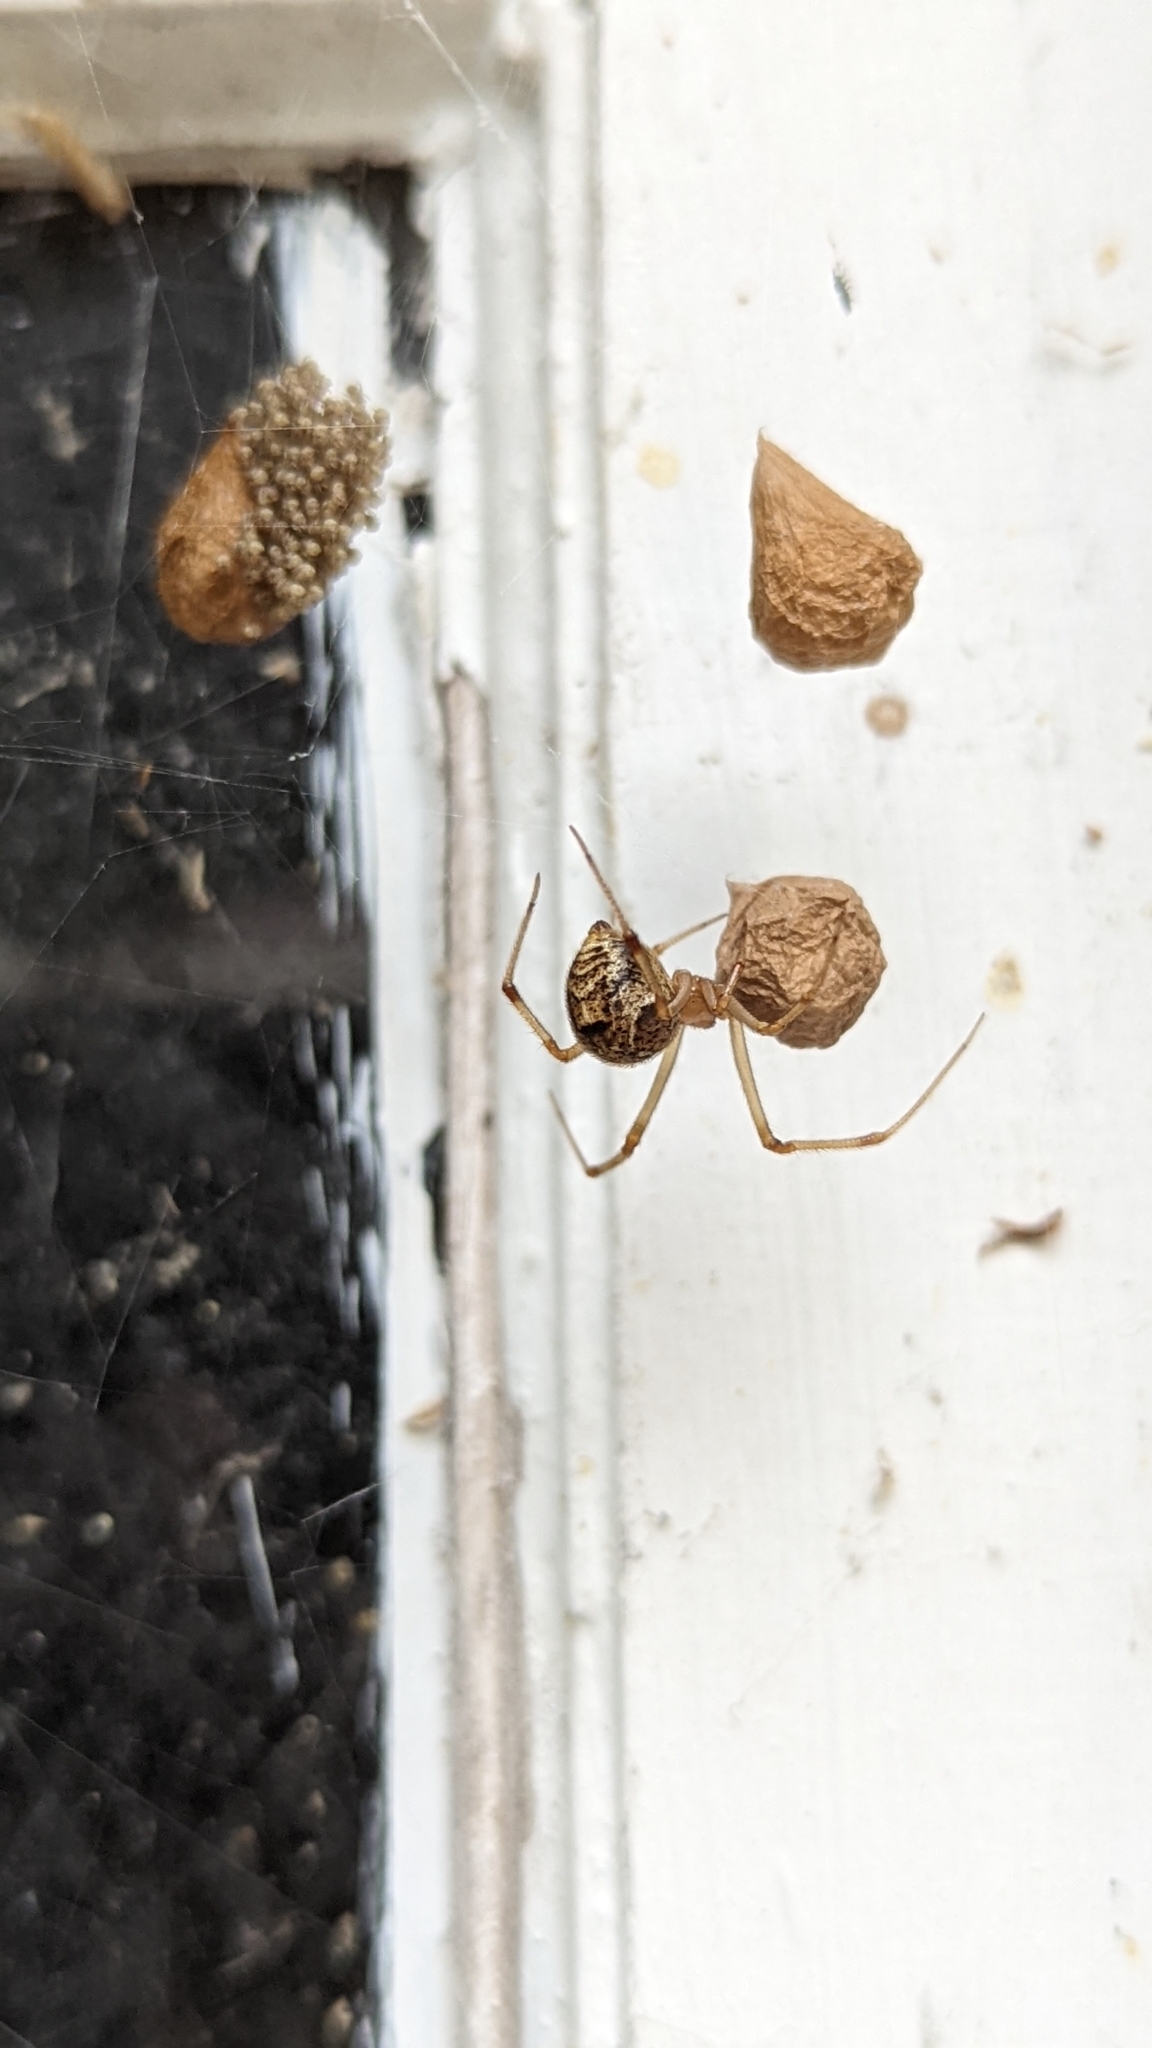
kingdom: Animalia
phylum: Arthropoda
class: Arachnida
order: Araneae
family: Theridiidae
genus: Parasteatoda
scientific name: Parasteatoda tepidariorum
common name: Common house spider
